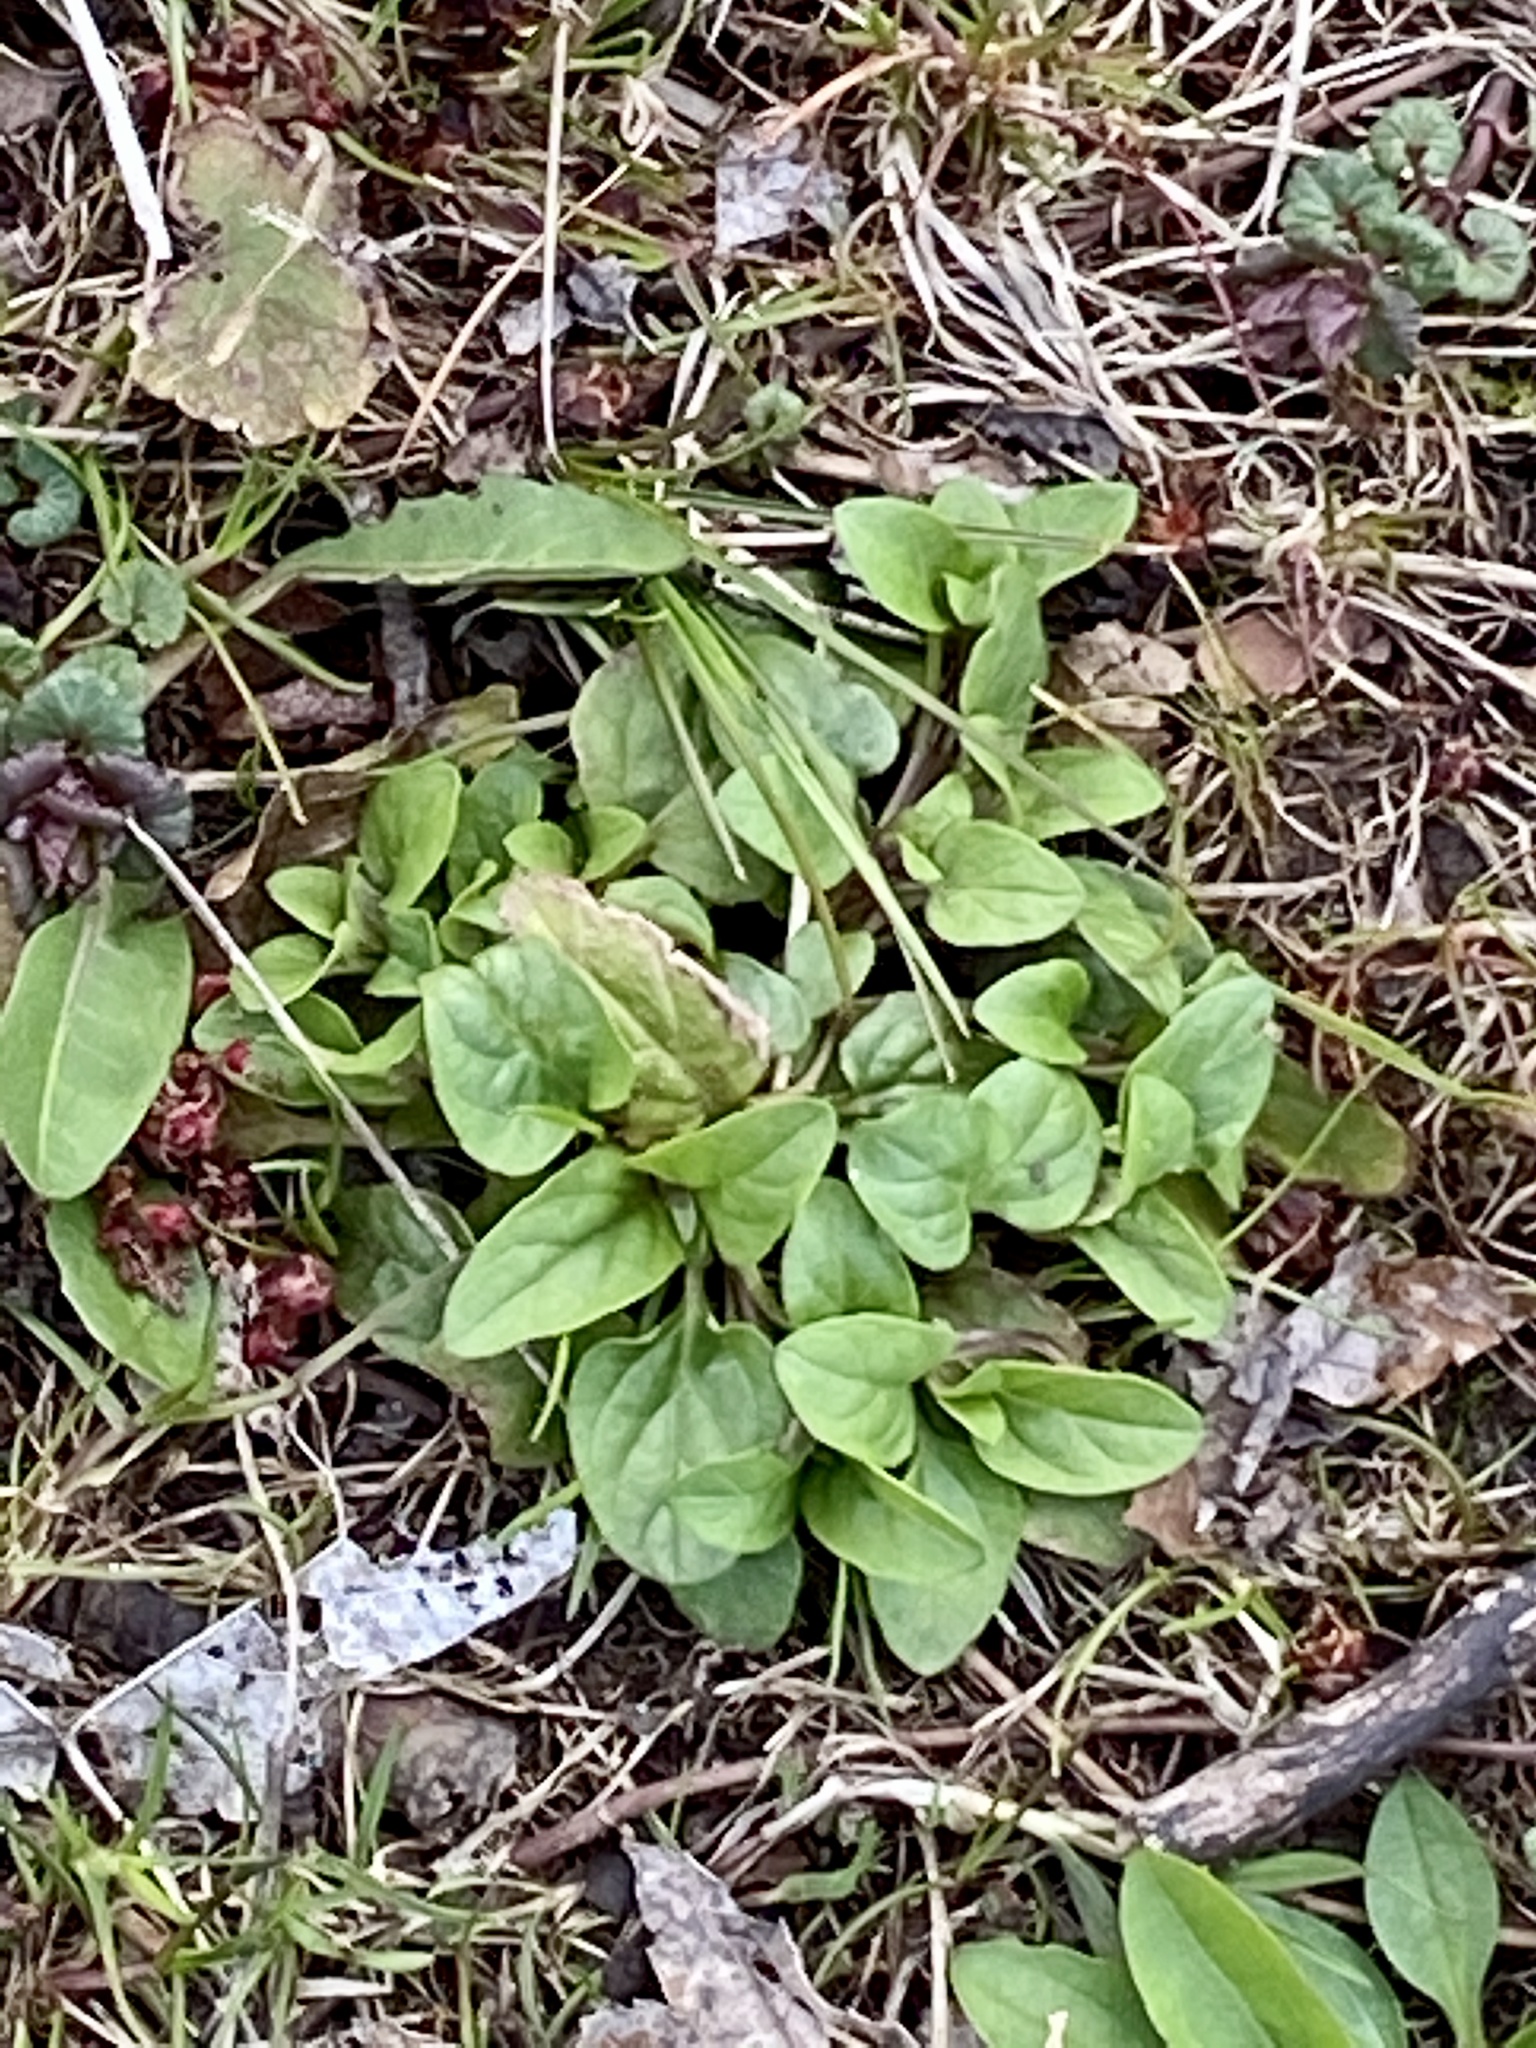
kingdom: Plantae
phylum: Tracheophyta
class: Magnoliopsida
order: Lamiales
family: Lamiaceae
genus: Prunella
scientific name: Prunella vulgaris
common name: Heal-all
